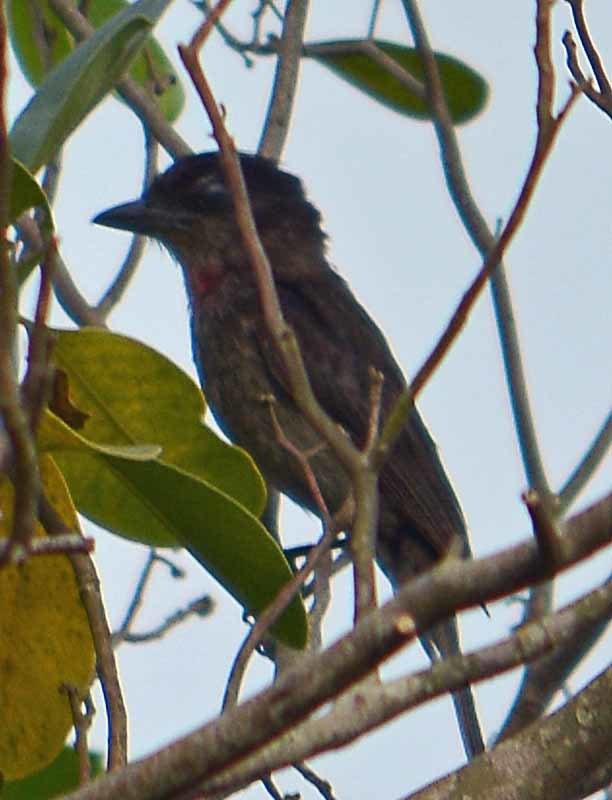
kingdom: Animalia
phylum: Chordata
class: Aves
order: Passeriformes
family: Cotingidae
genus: Pachyramphus
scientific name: Pachyramphus aglaiae
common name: Rose-throated becard
